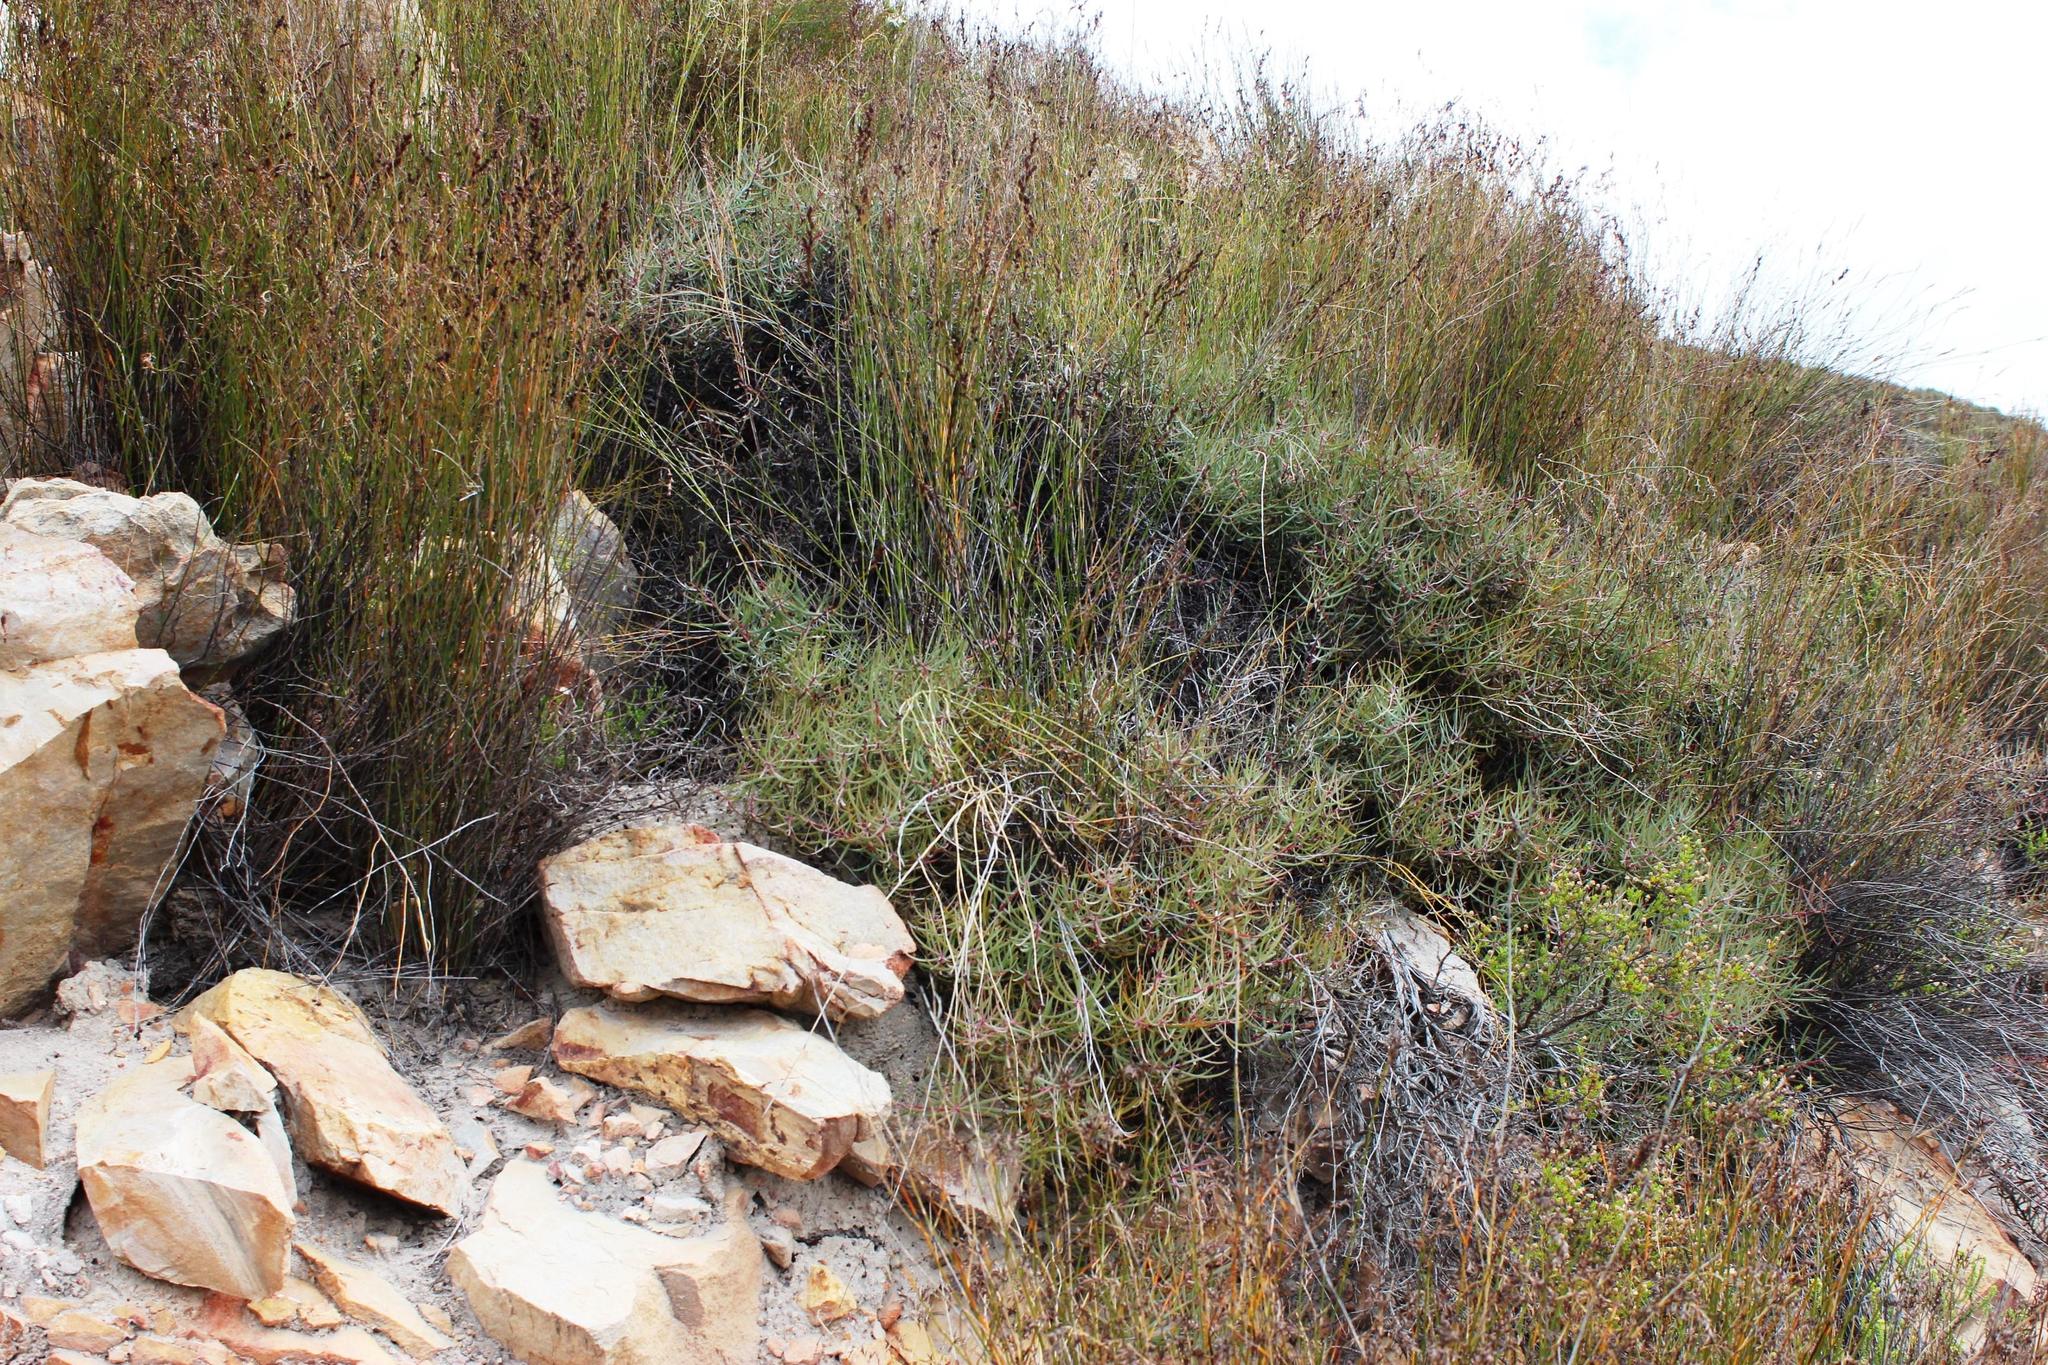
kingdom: Plantae
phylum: Tracheophyta
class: Magnoliopsida
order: Proteales
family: Proteaceae
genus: Protea
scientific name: Protea humiflora
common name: Patent-leaf sugarbush
